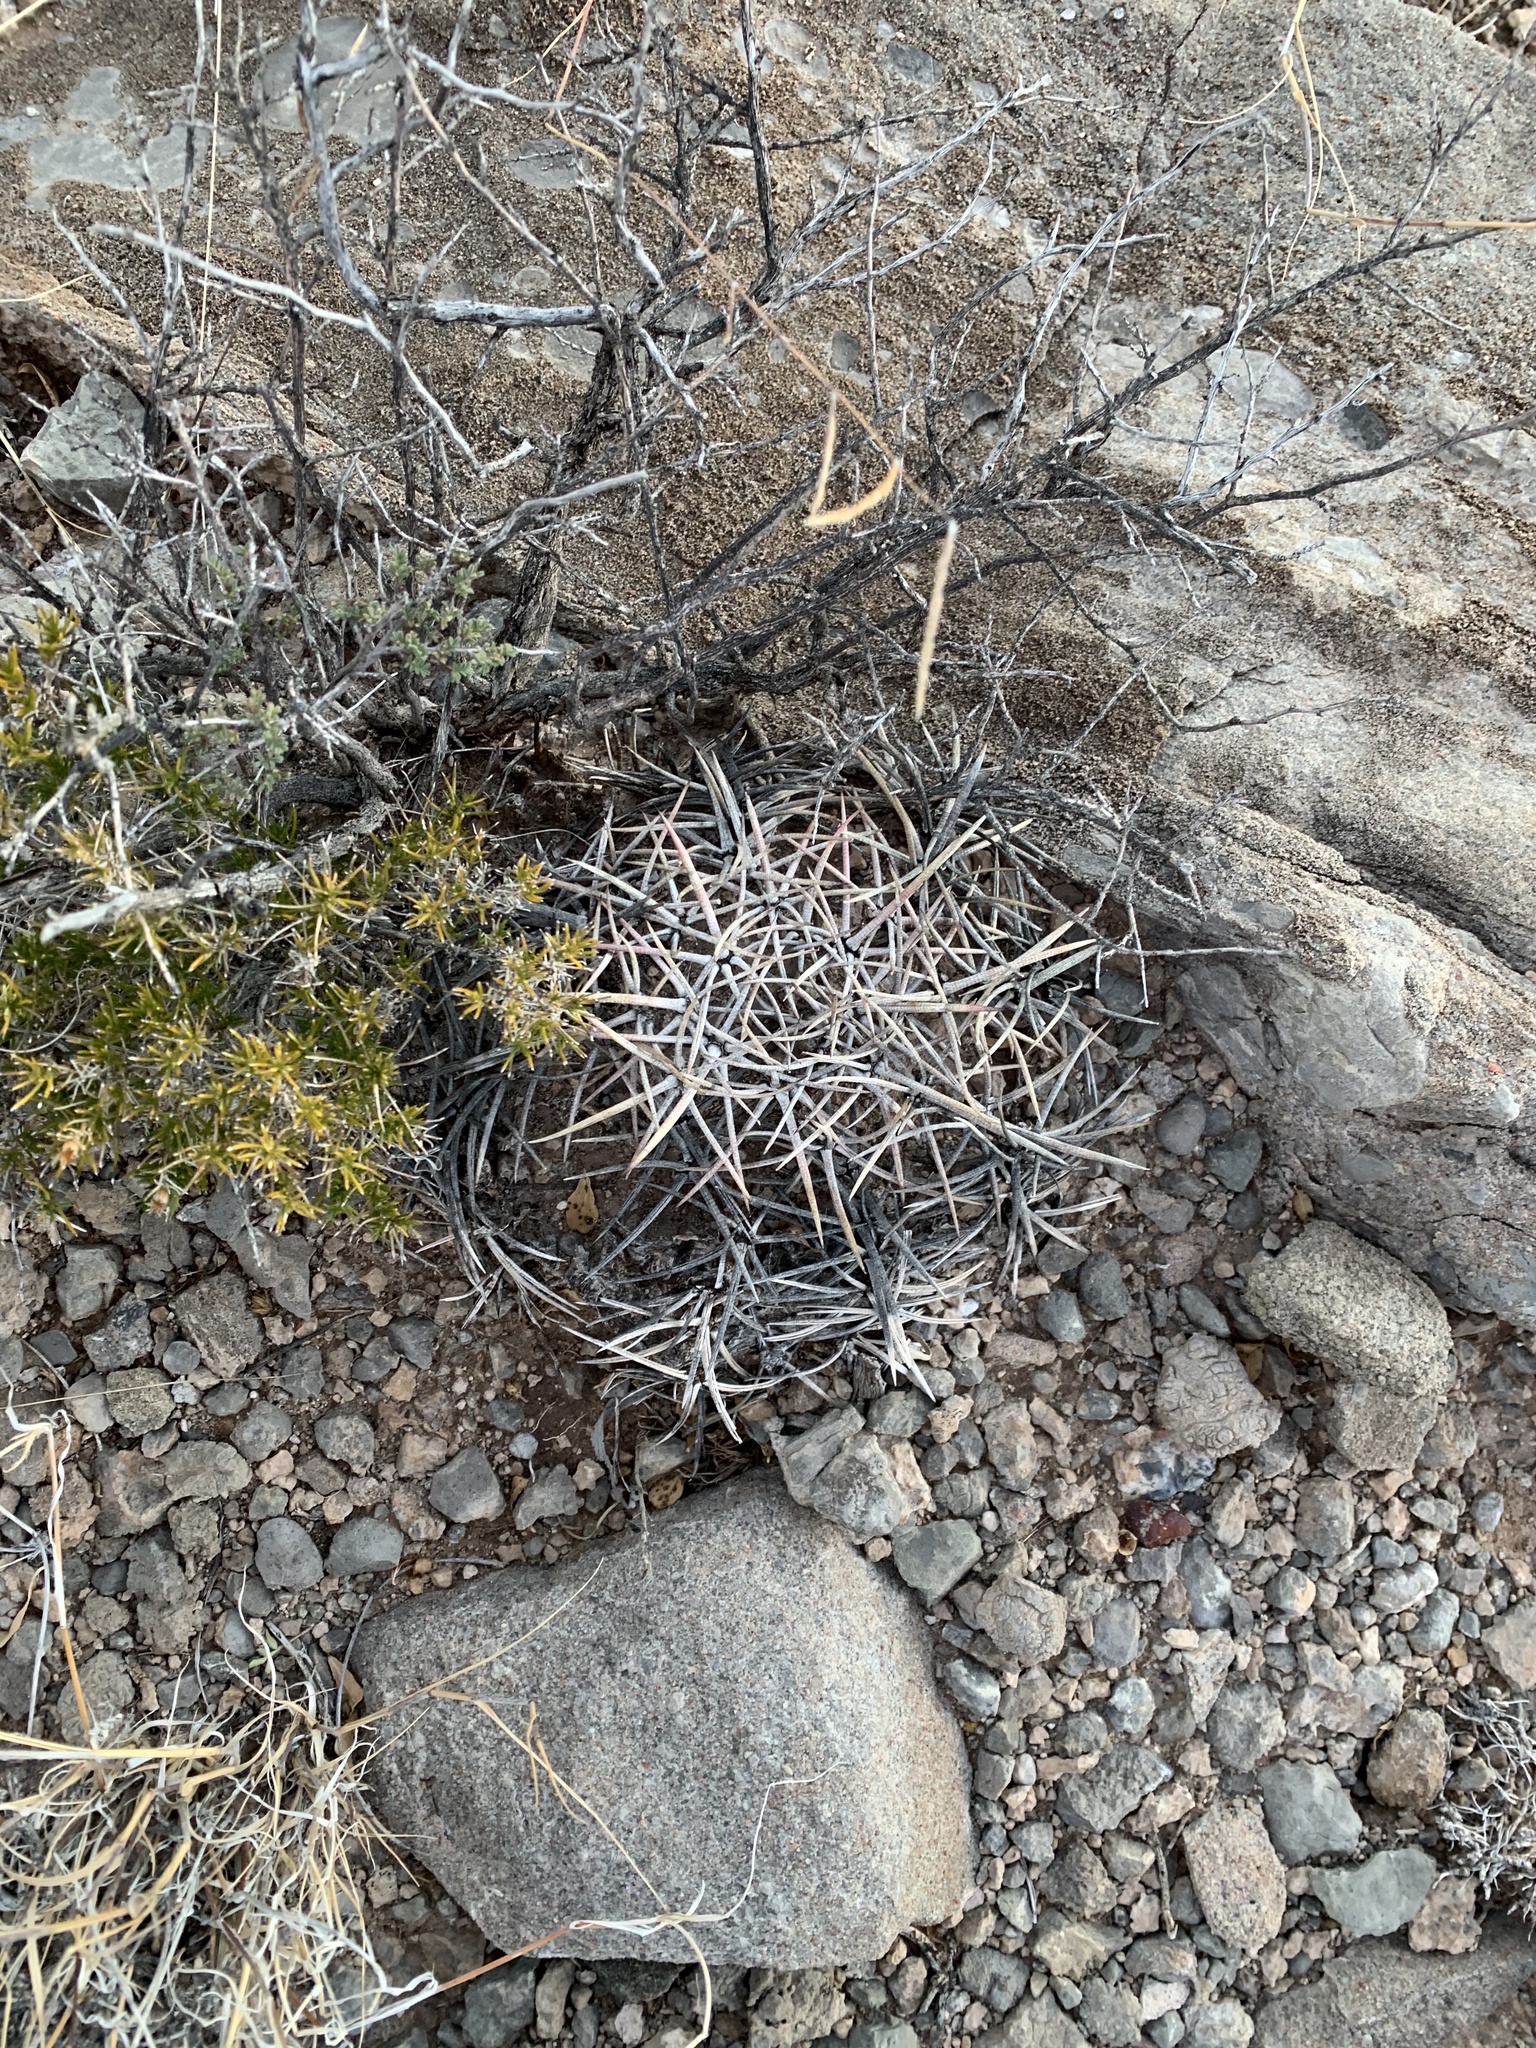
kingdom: Plantae
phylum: Tracheophyta
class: Magnoliopsida
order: Caryophyllales
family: Cactaceae
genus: Echinocactus
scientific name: Echinocactus horizonthalonius
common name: Devilshead
